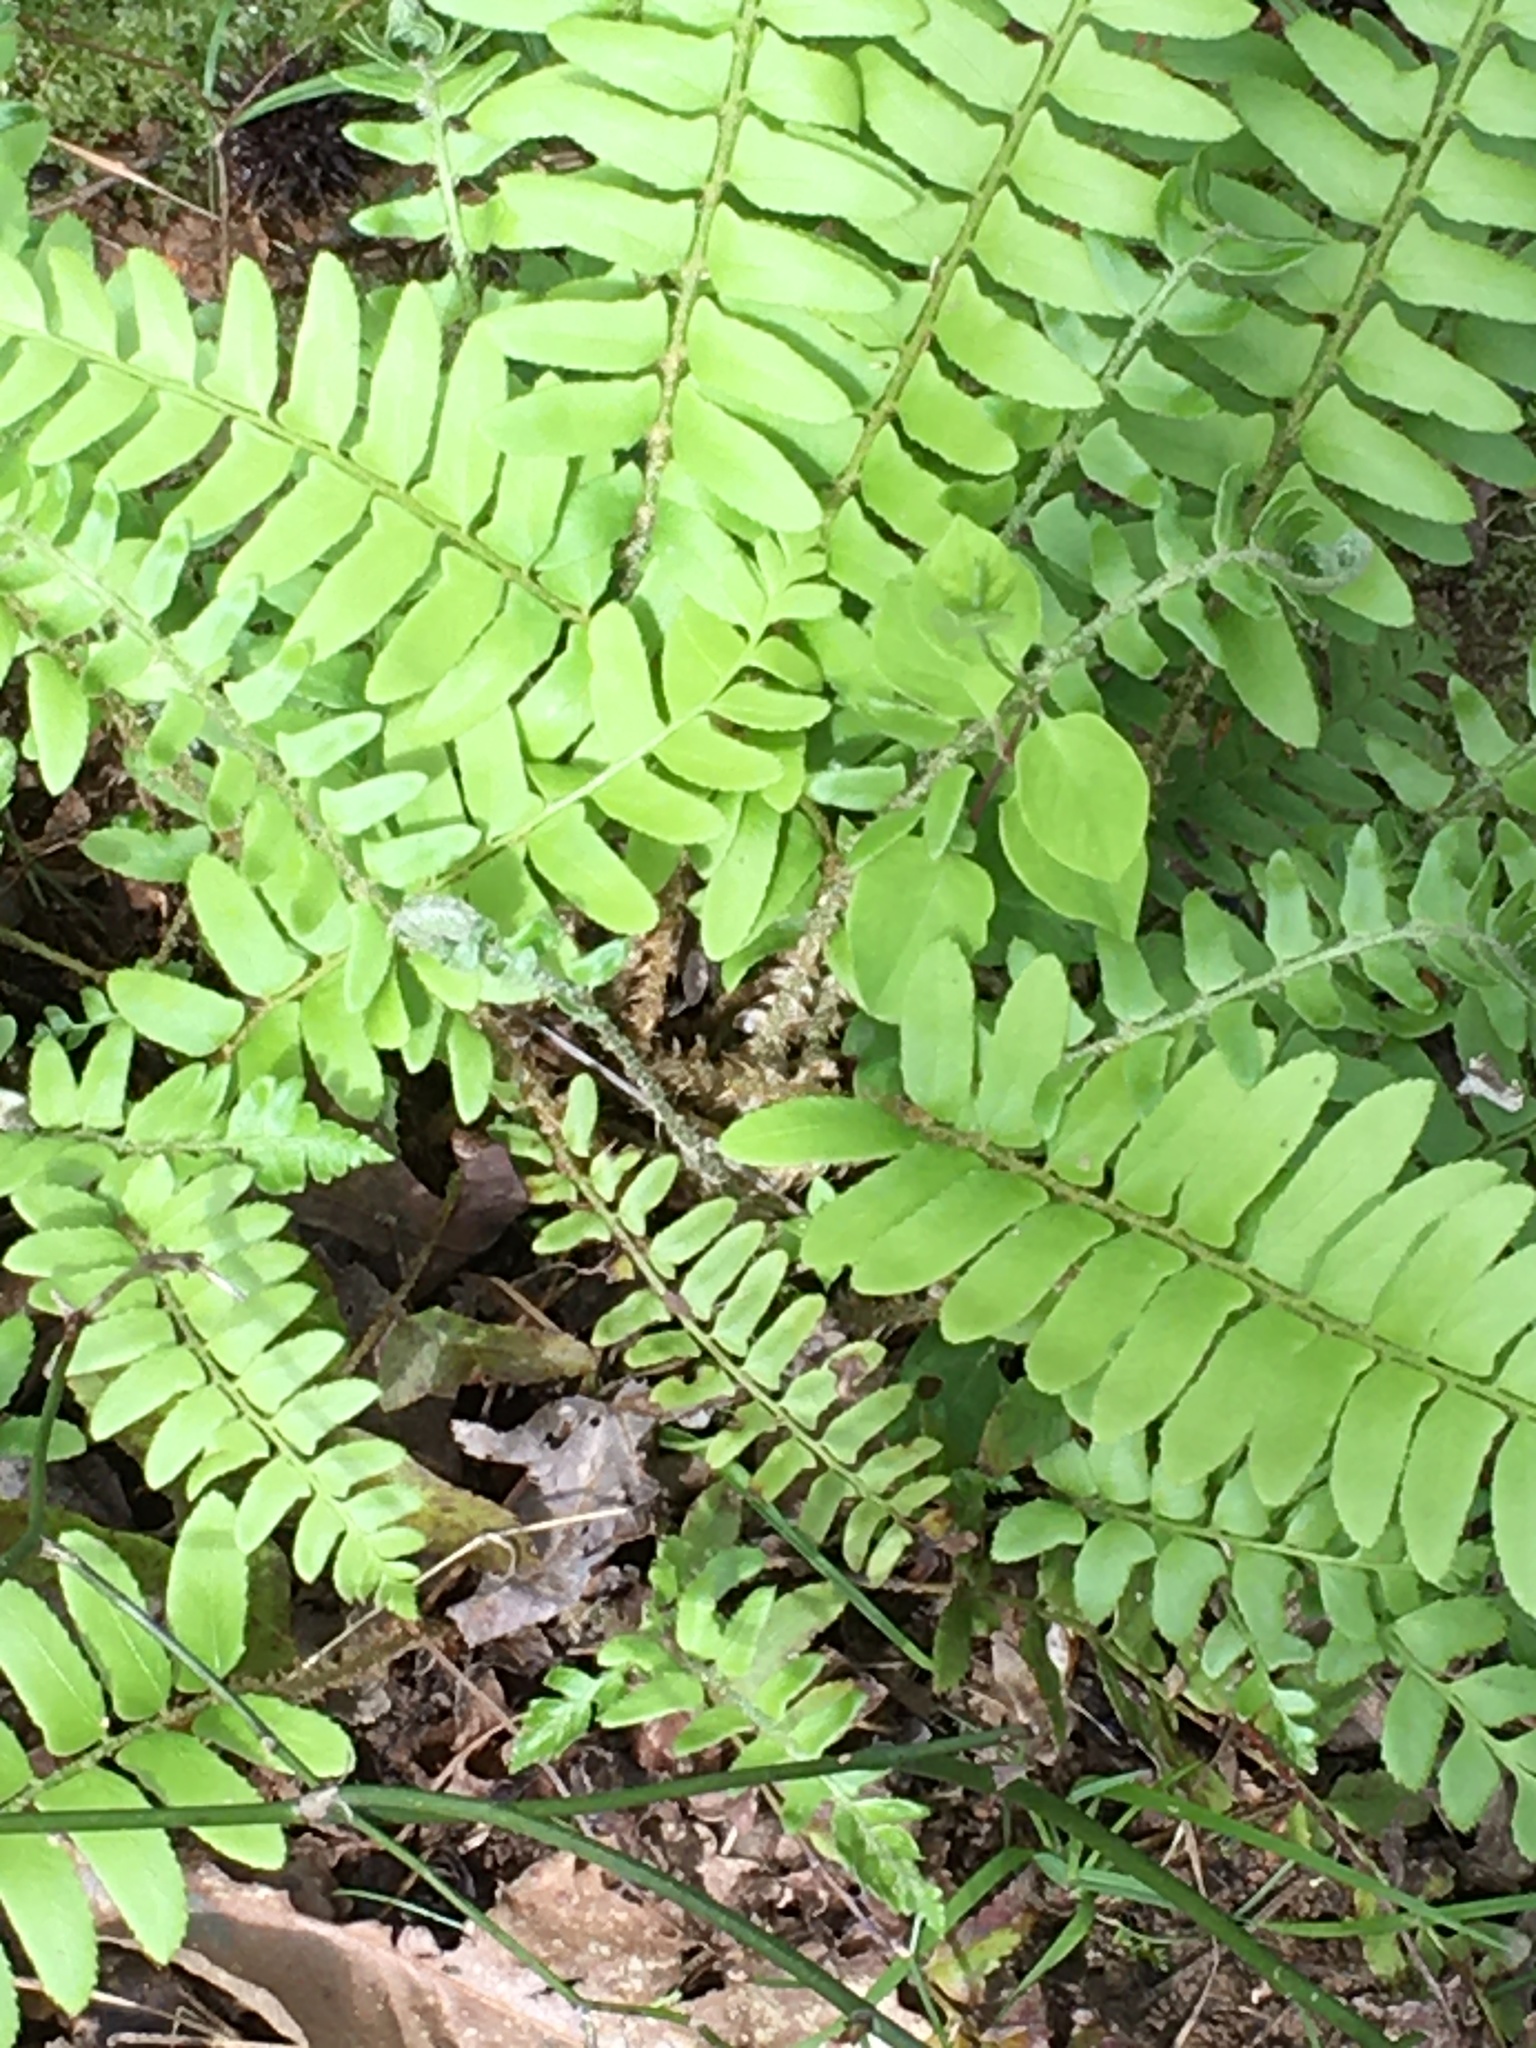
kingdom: Plantae
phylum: Tracheophyta
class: Polypodiopsida
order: Polypodiales
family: Dryopteridaceae
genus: Polystichum
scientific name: Polystichum acrostichoides
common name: Christmas fern
